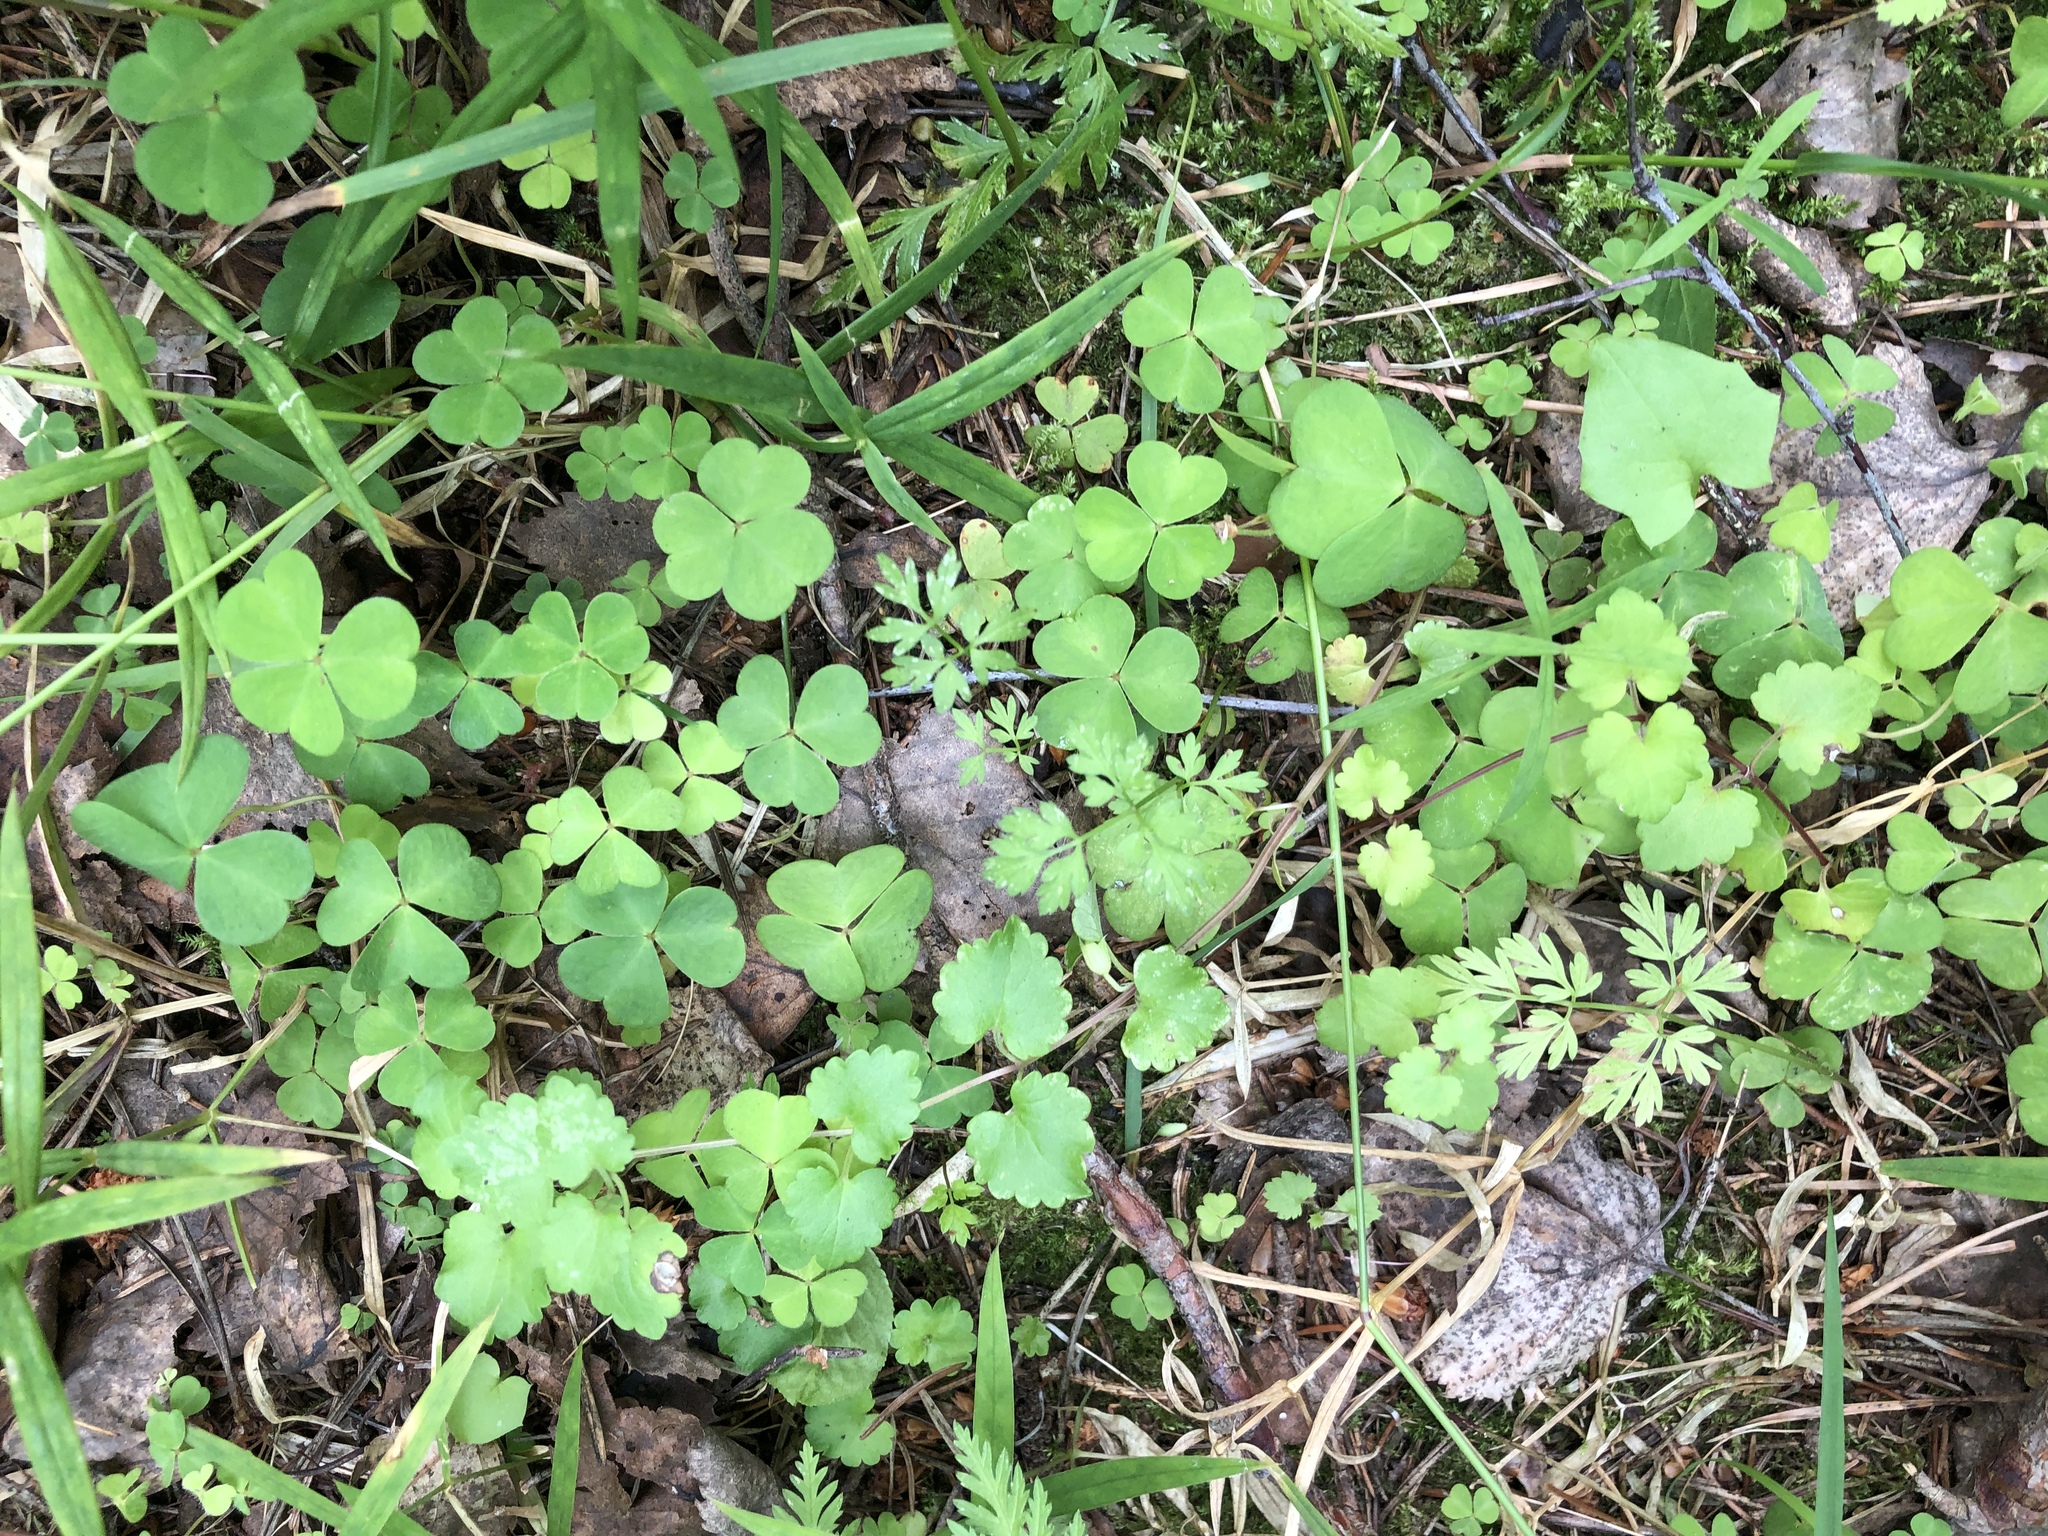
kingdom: Plantae
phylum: Tracheophyta
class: Magnoliopsida
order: Oxalidales
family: Oxalidaceae
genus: Oxalis
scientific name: Oxalis acetosella
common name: Wood-sorrel
